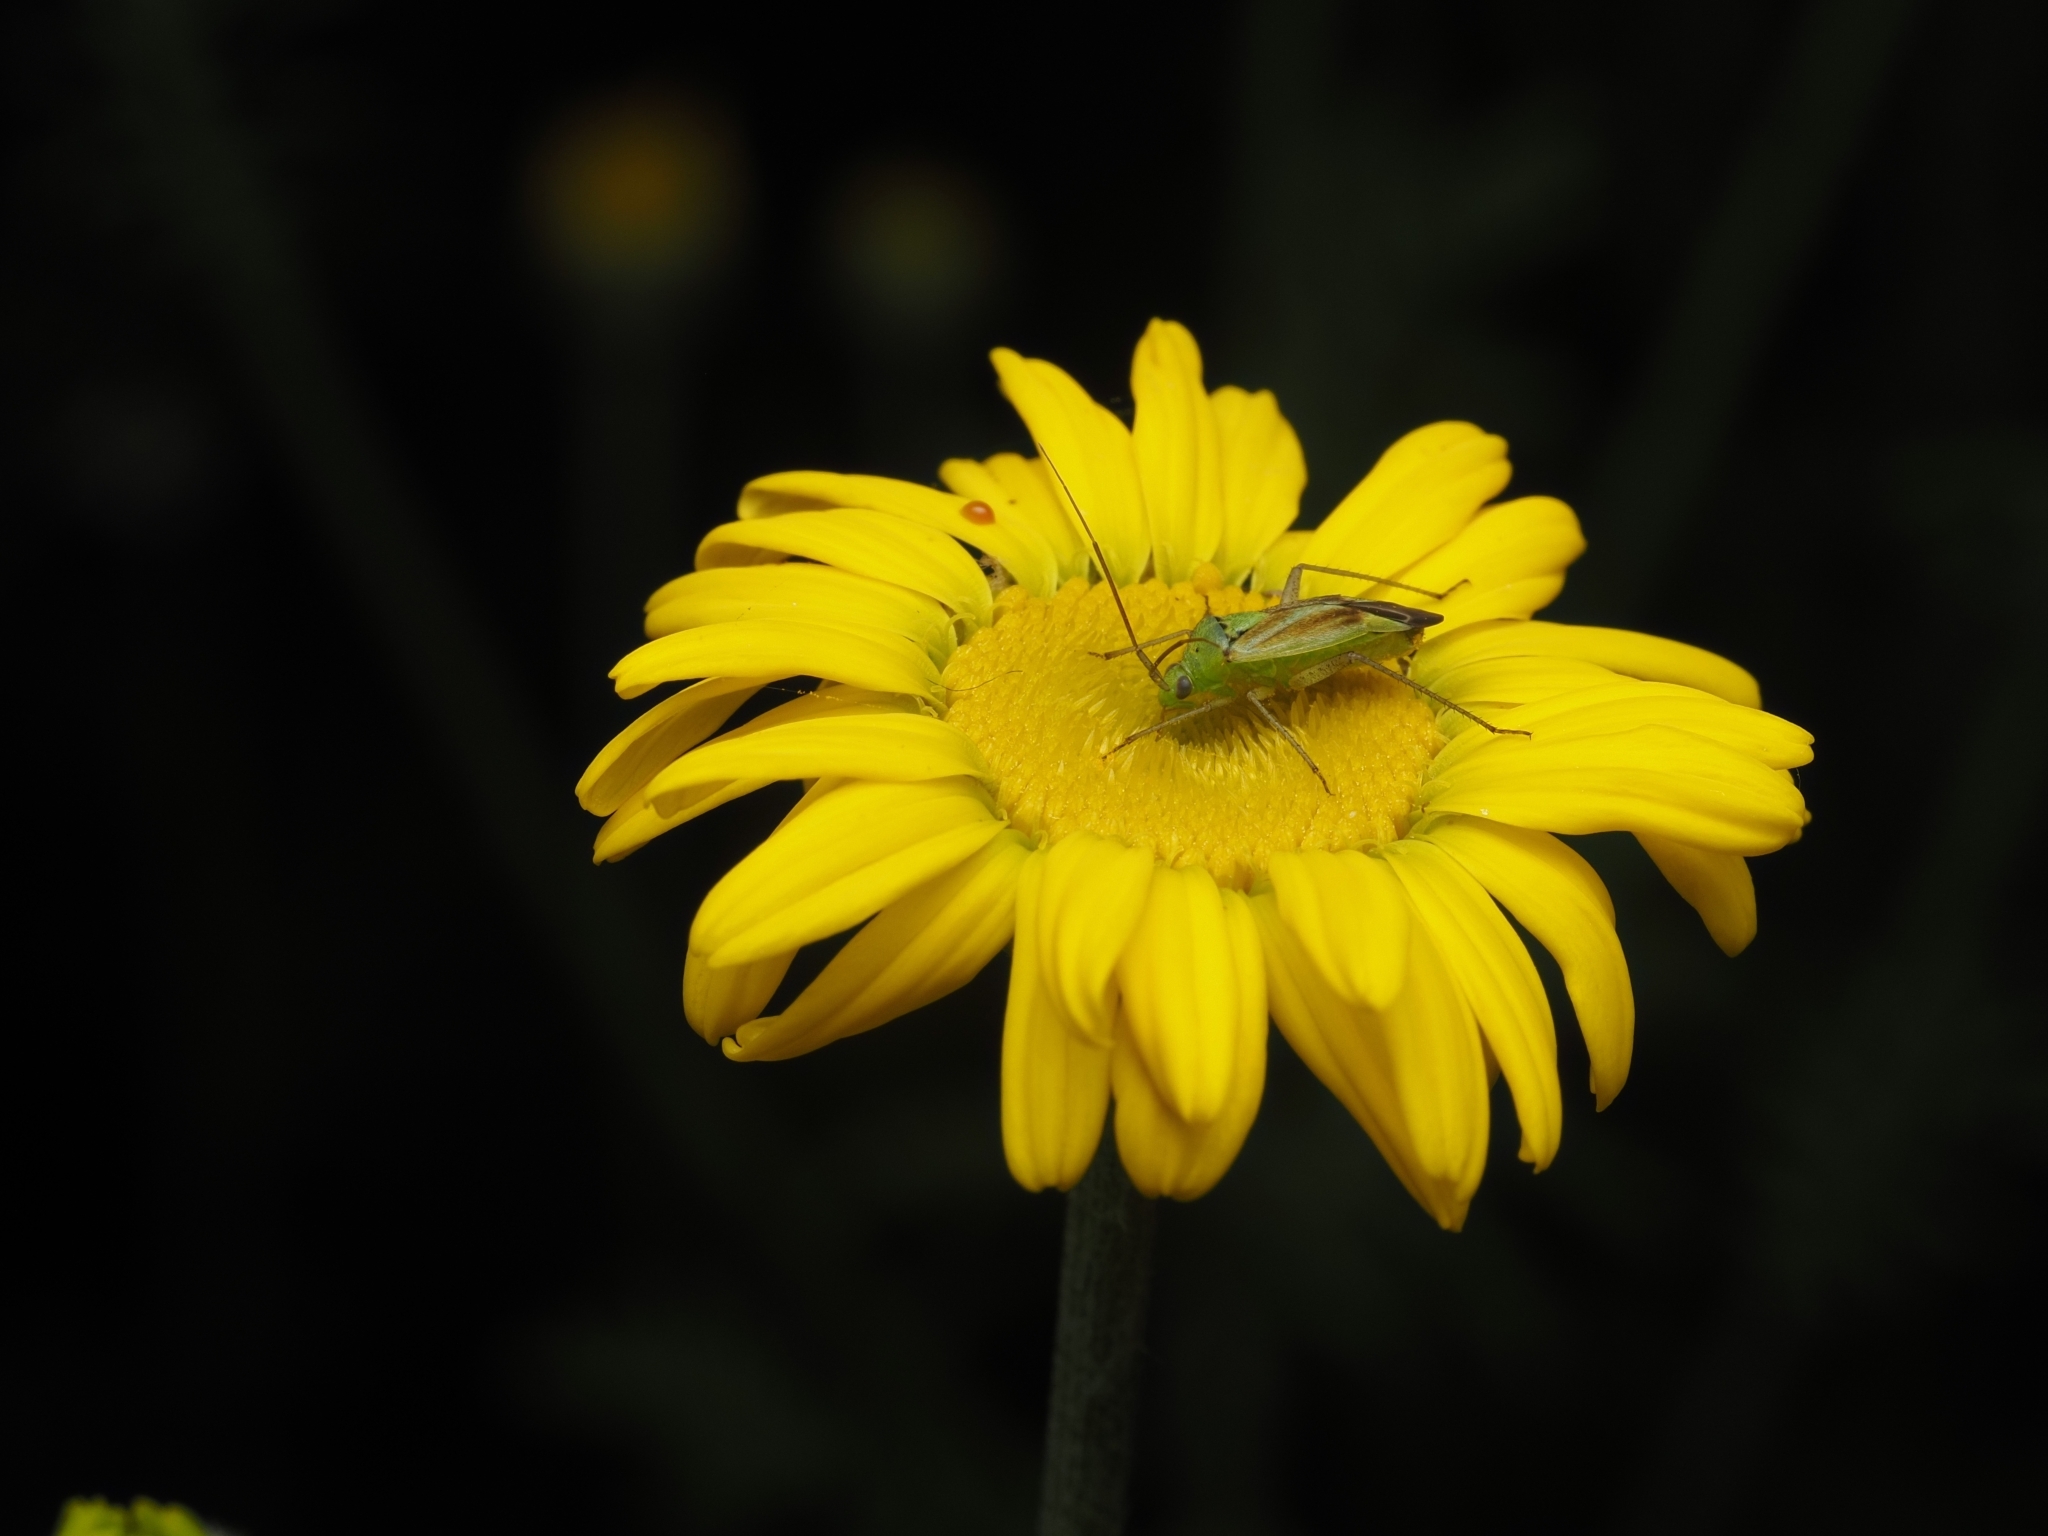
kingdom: Animalia
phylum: Arthropoda
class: Insecta
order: Hemiptera
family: Miridae
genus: Closterotomus
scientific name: Closterotomus norvegicus
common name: Plant bug
